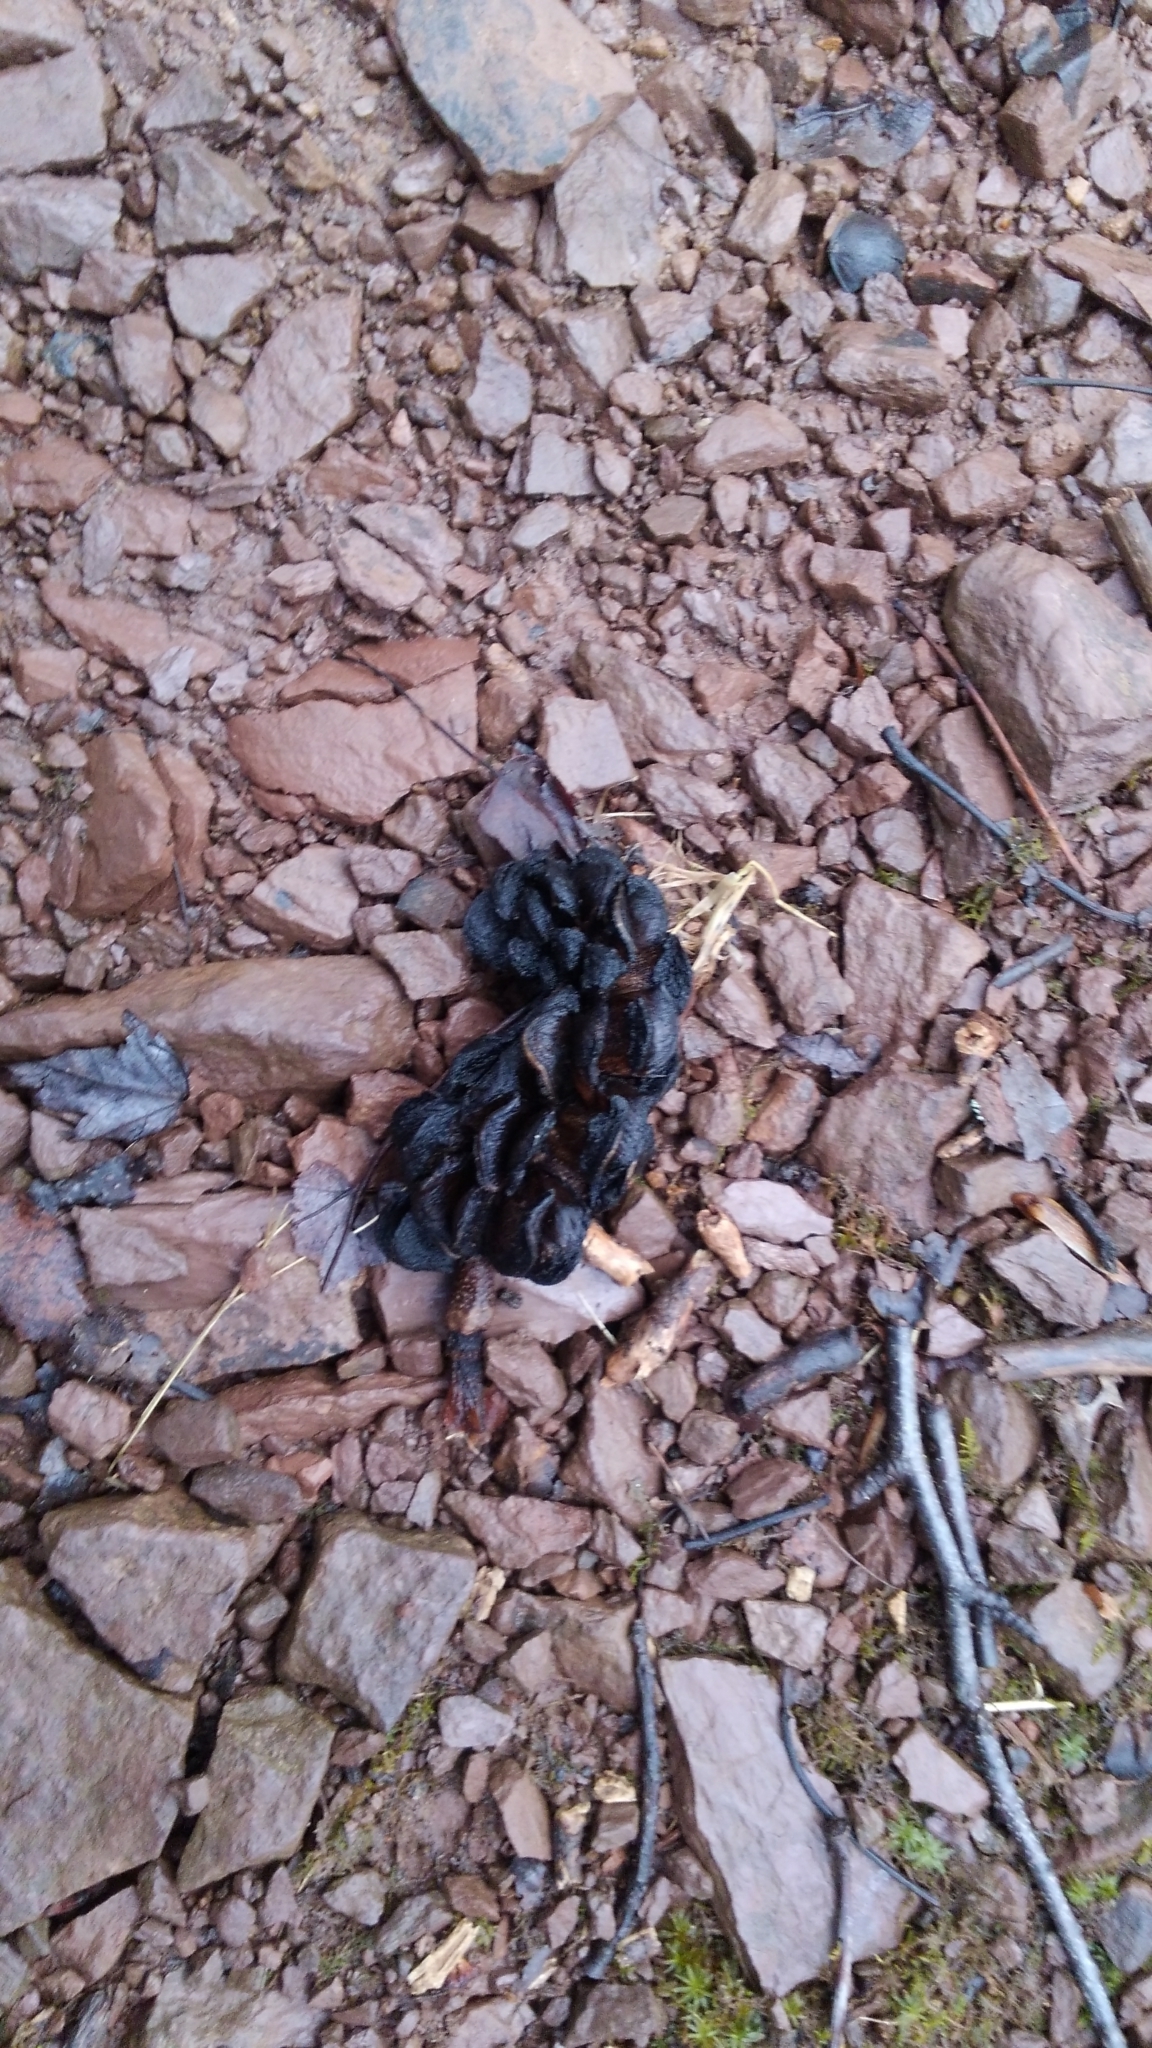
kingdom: Plantae
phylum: Tracheophyta
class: Magnoliopsida
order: Magnoliales
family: Magnoliaceae
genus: Magnolia
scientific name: Magnolia acuminata
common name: Cucumber magnolia
